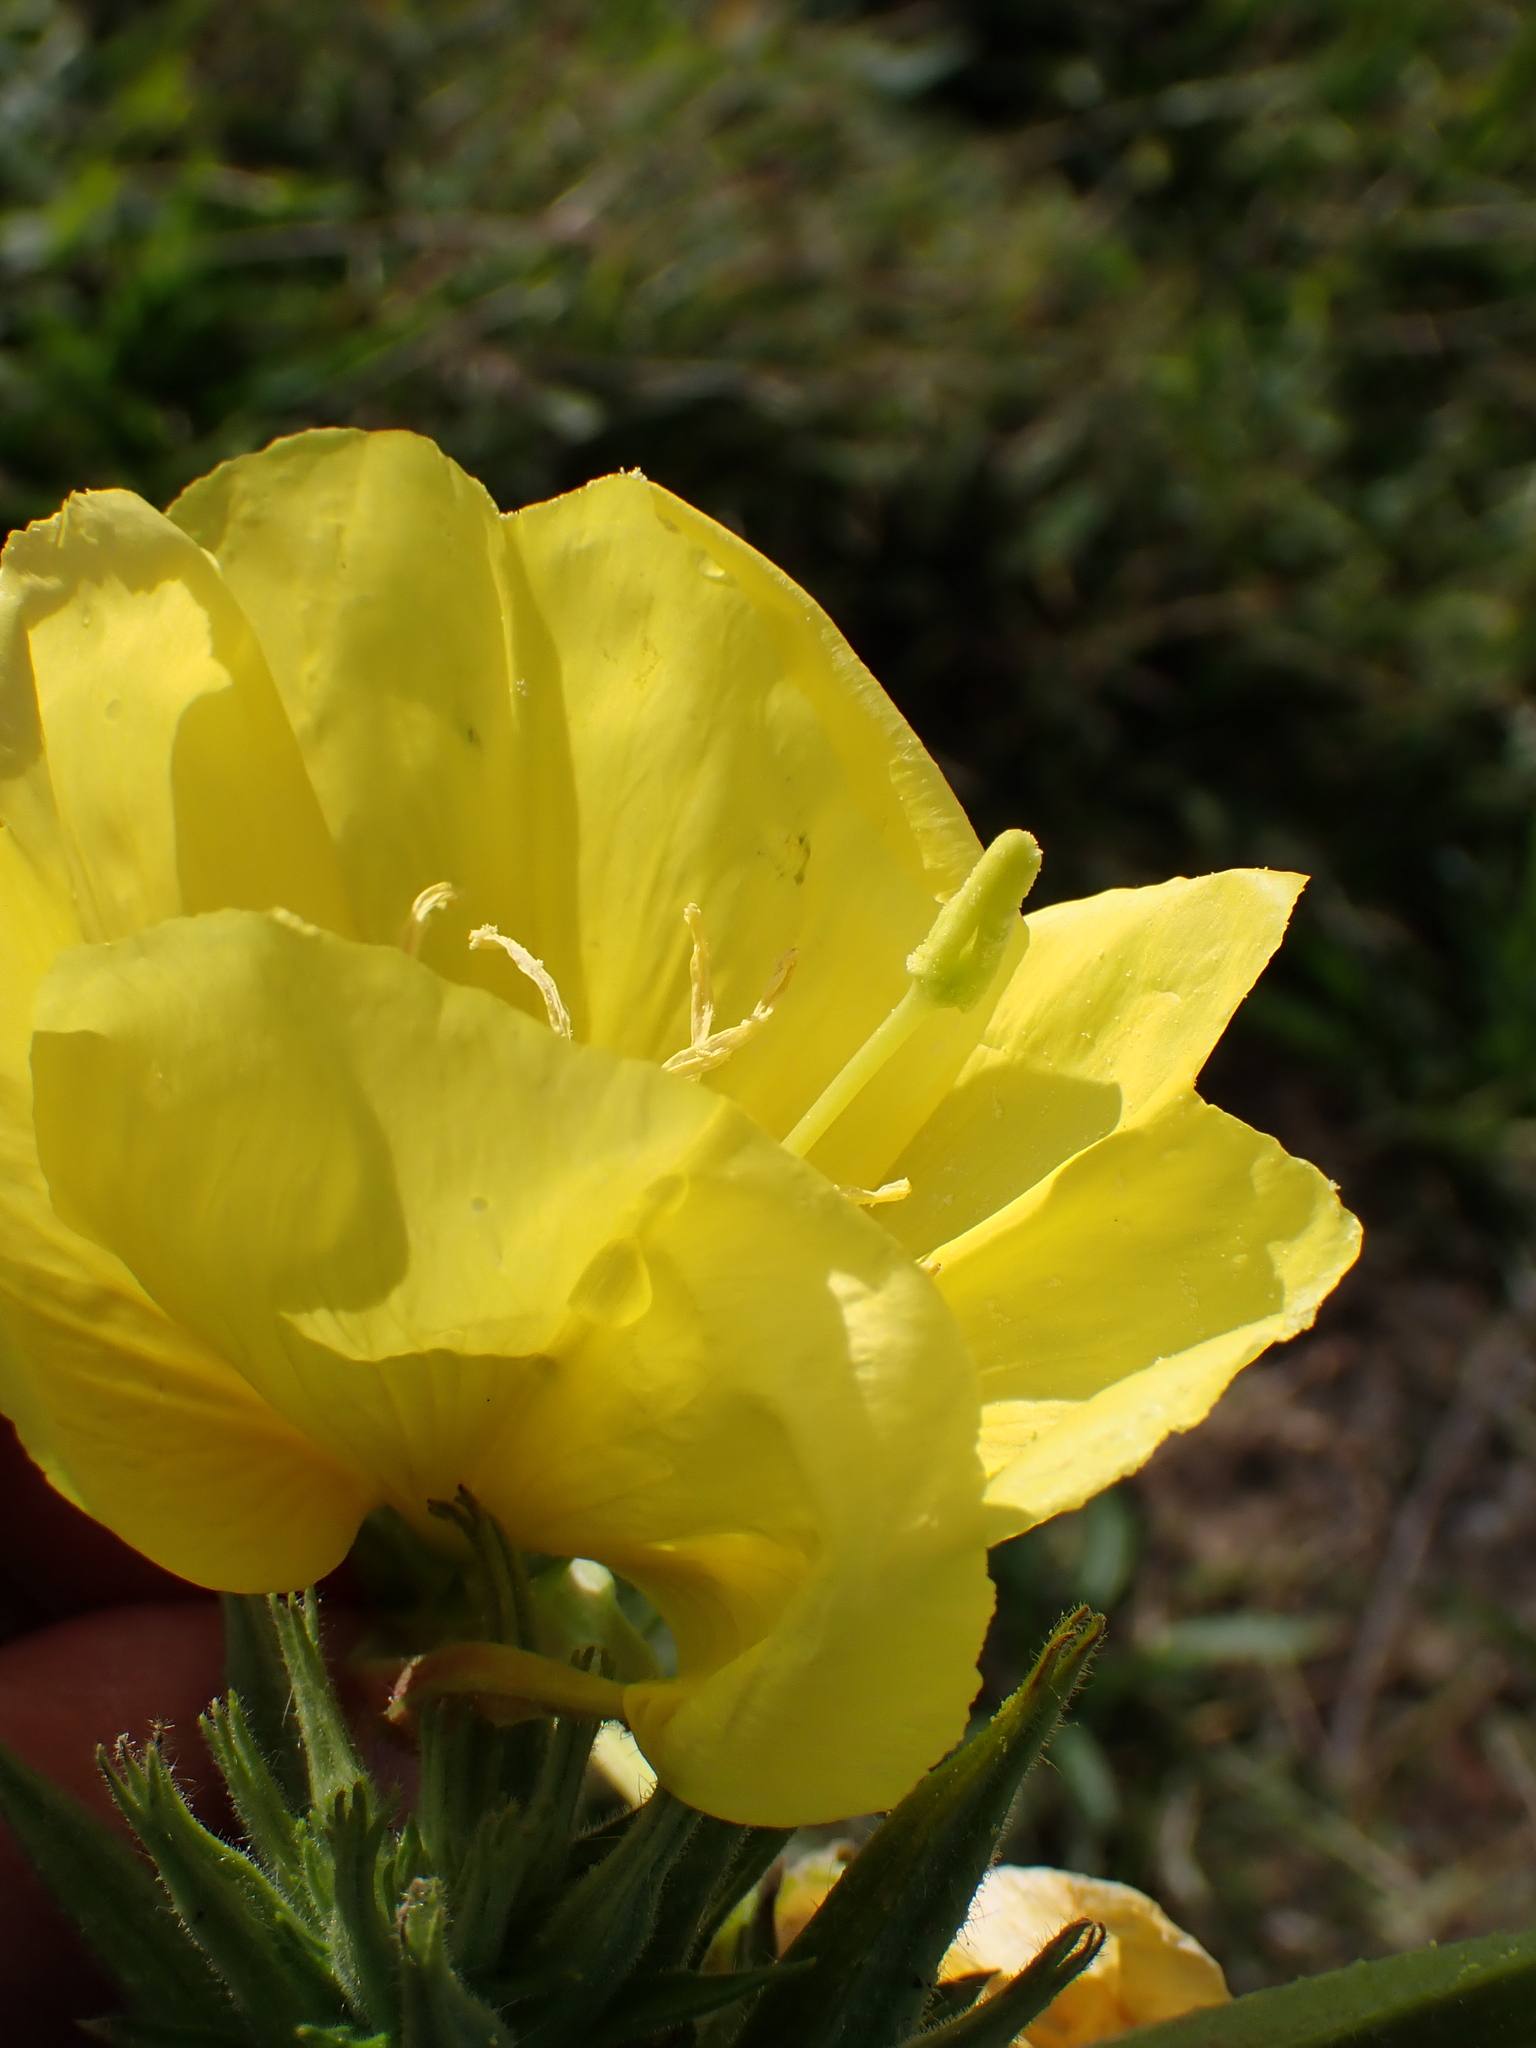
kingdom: Plantae
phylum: Tracheophyta
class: Magnoliopsida
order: Myrtales
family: Onagraceae
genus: Oenothera
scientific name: Oenothera glazioviana
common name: Large-flowered evening-primrose
